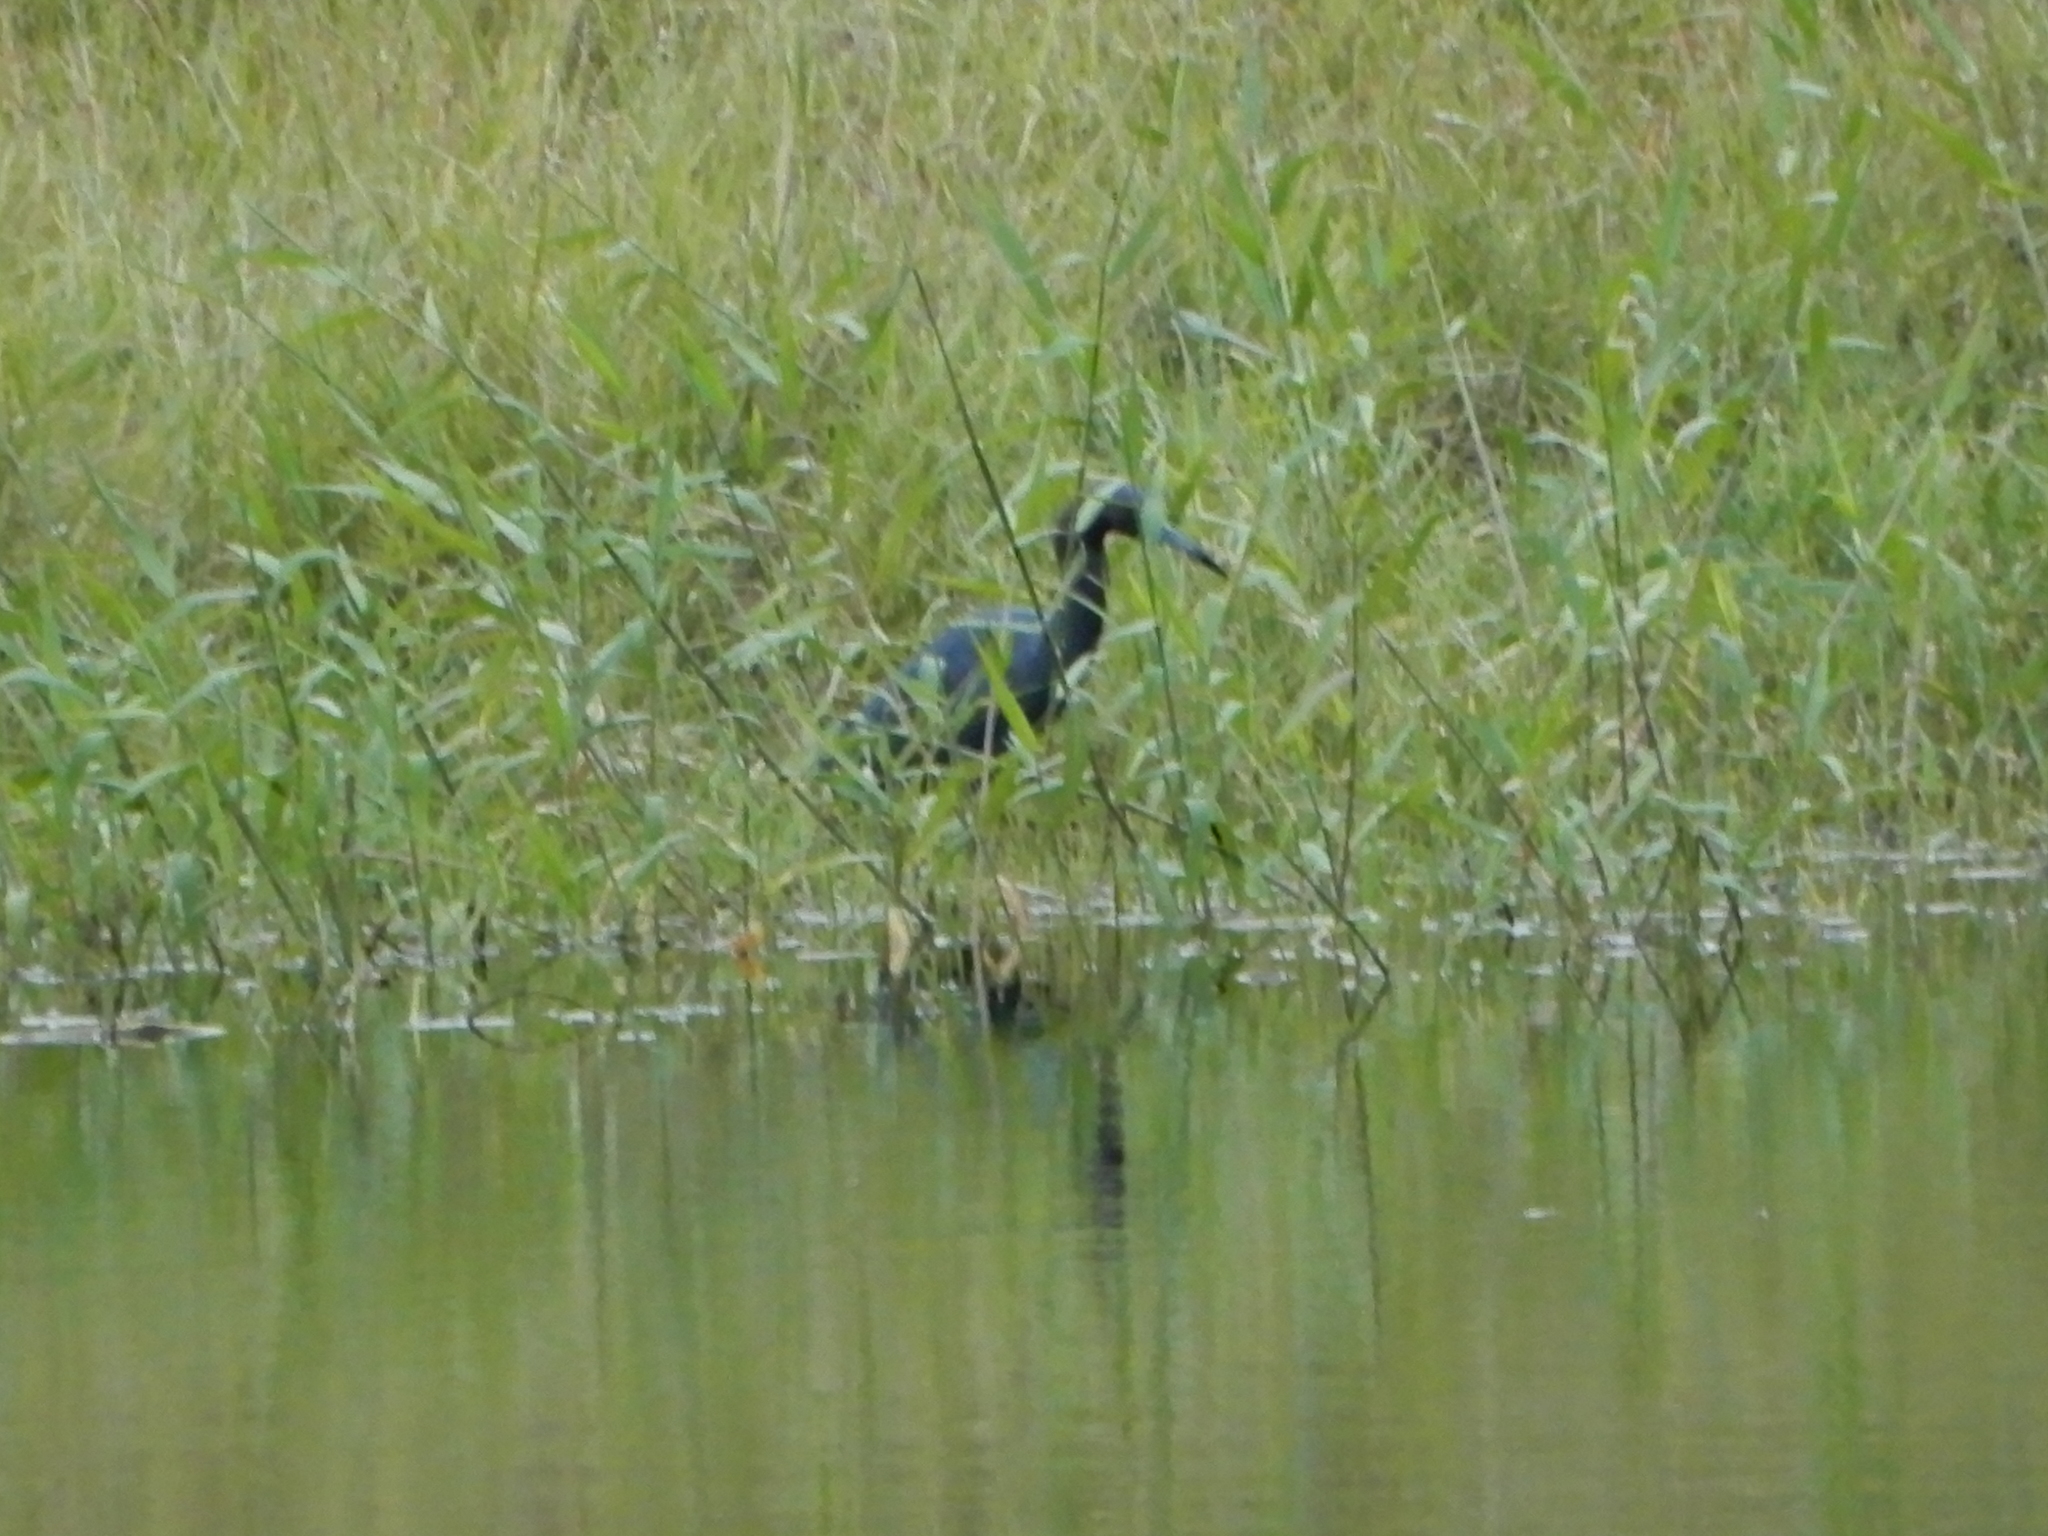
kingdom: Animalia
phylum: Chordata
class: Aves
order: Pelecaniformes
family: Ardeidae
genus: Egretta
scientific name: Egretta caerulea
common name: Little blue heron
